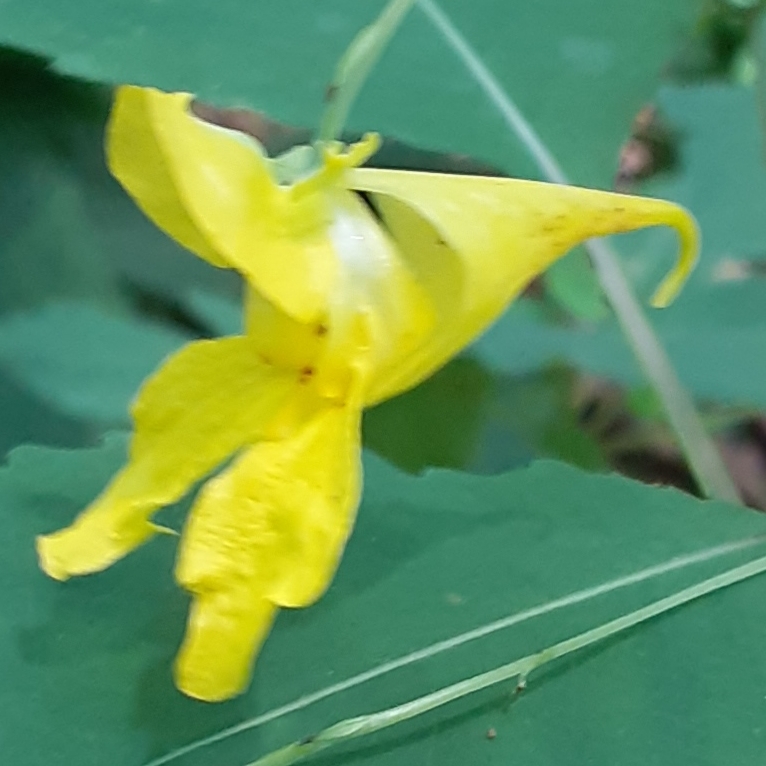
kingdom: Plantae
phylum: Tracheophyta
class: Magnoliopsida
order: Ericales
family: Balsaminaceae
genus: Impatiens
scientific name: Impatiens pallida
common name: Pale snapweed
